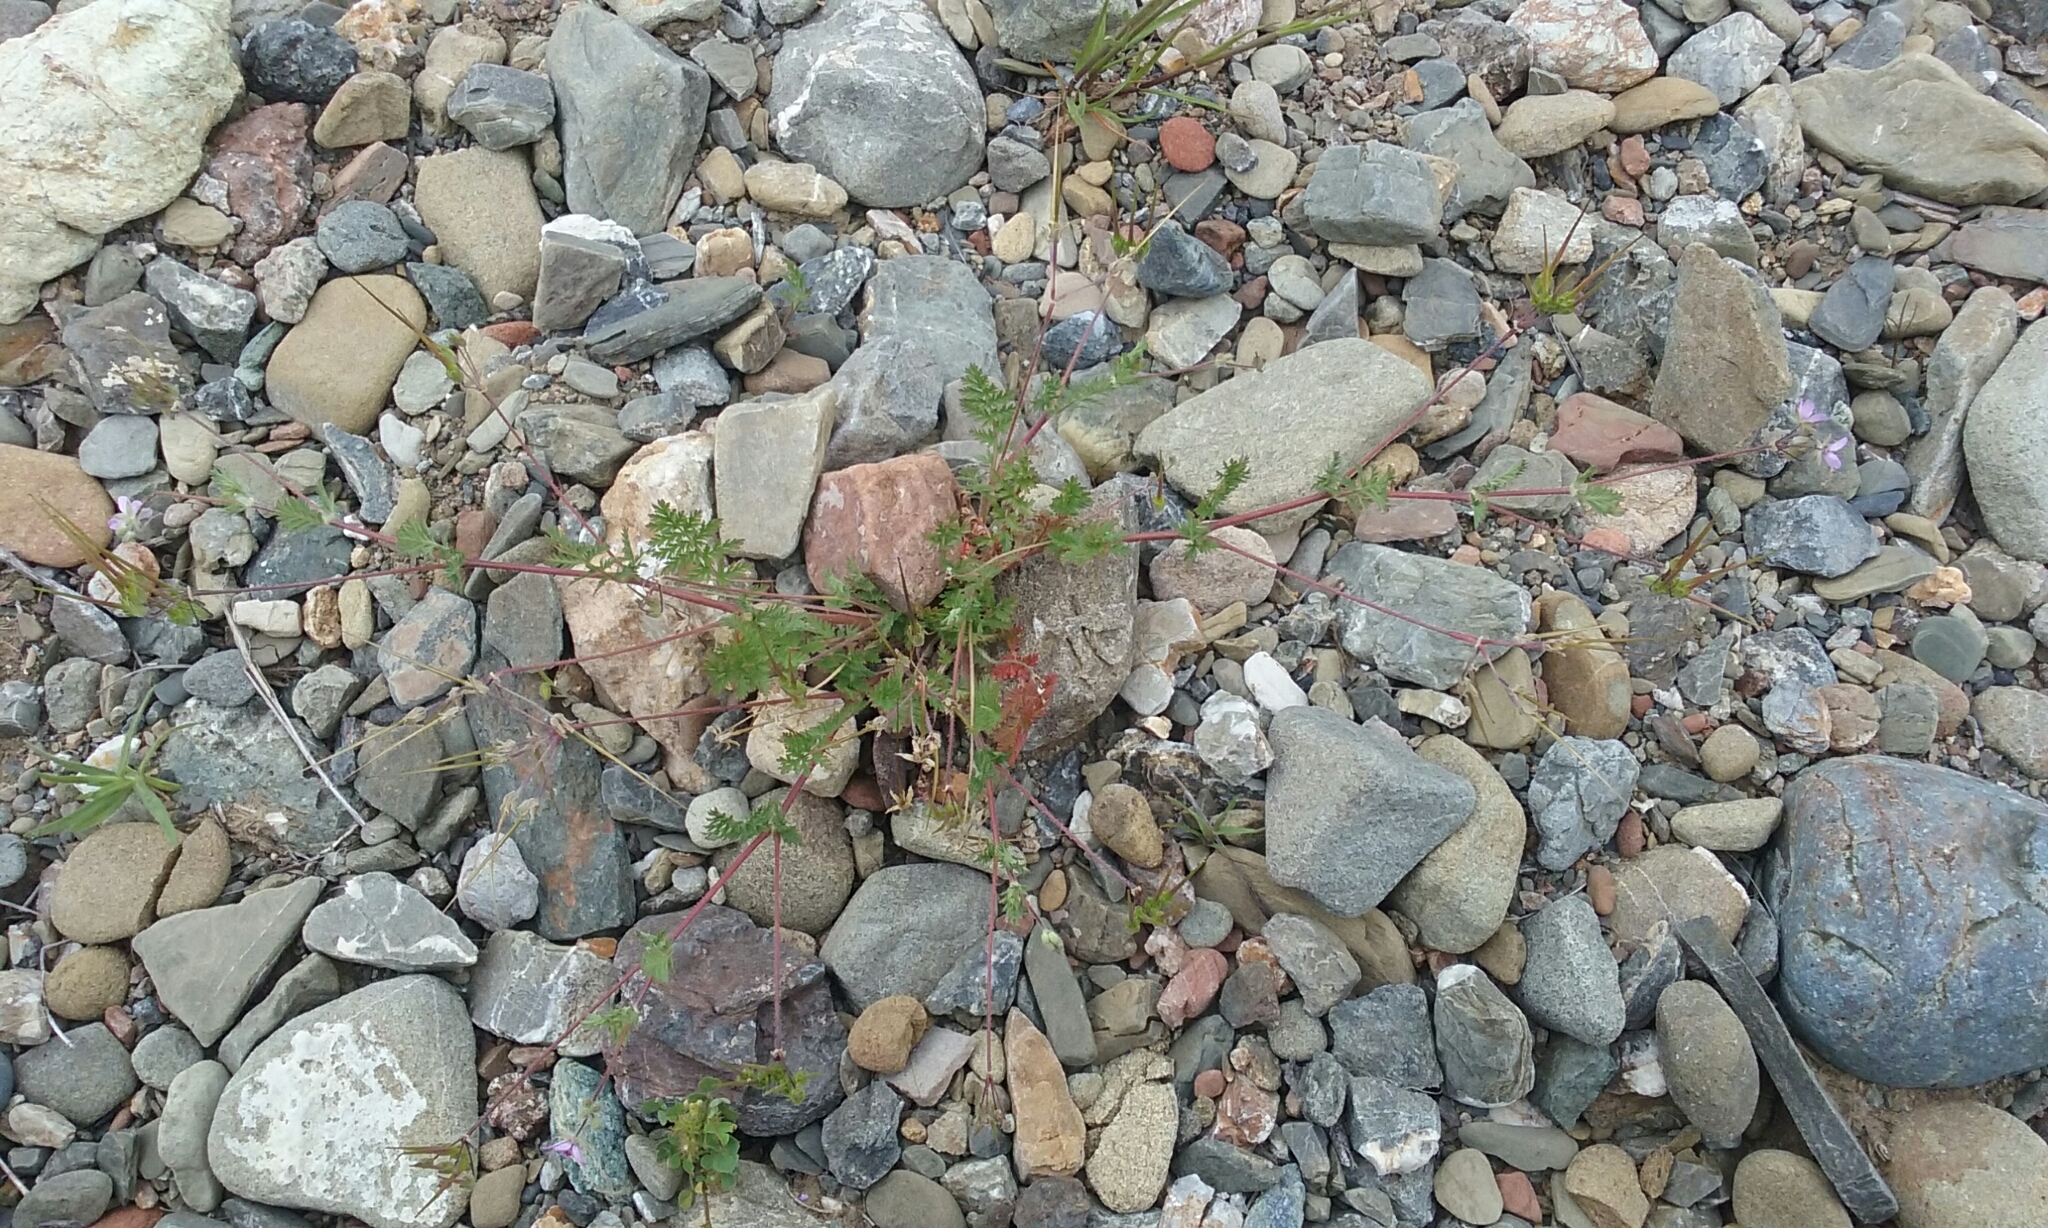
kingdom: Plantae
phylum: Tracheophyta
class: Magnoliopsida
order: Geraniales
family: Geraniaceae
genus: Erodium
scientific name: Erodium cicutarium
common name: Common stork's-bill
